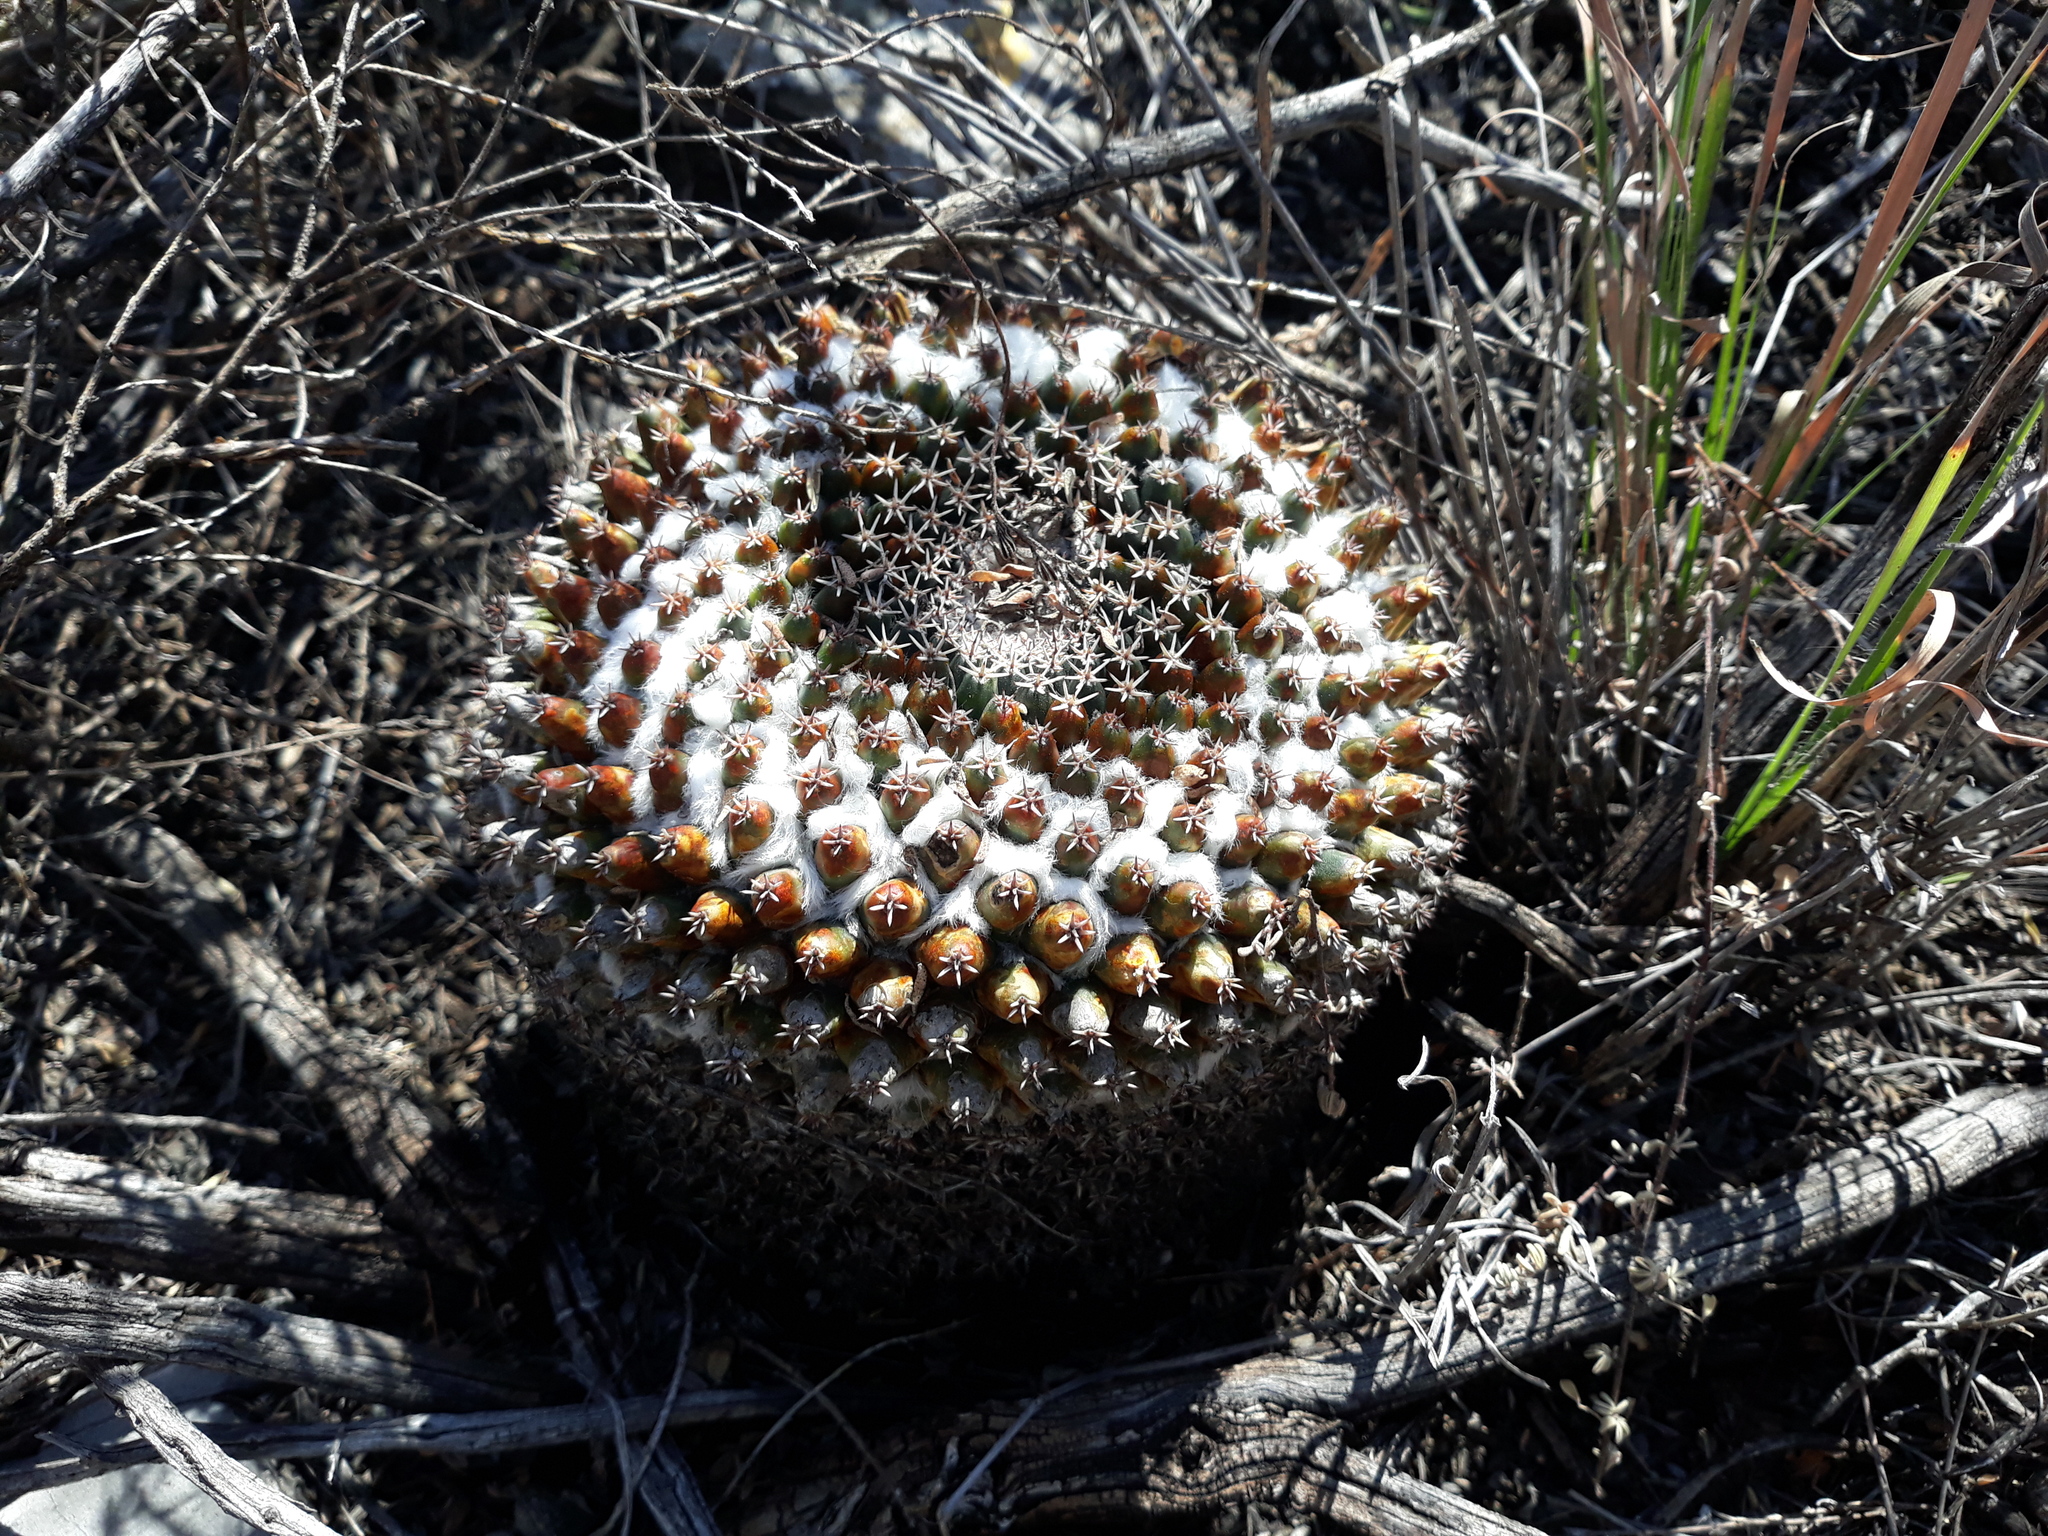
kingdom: Plantae
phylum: Tracheophyta
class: Magnoliopsida
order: Caryophyllales
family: Cactaceae
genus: Mammillaria
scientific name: Mammillaria
